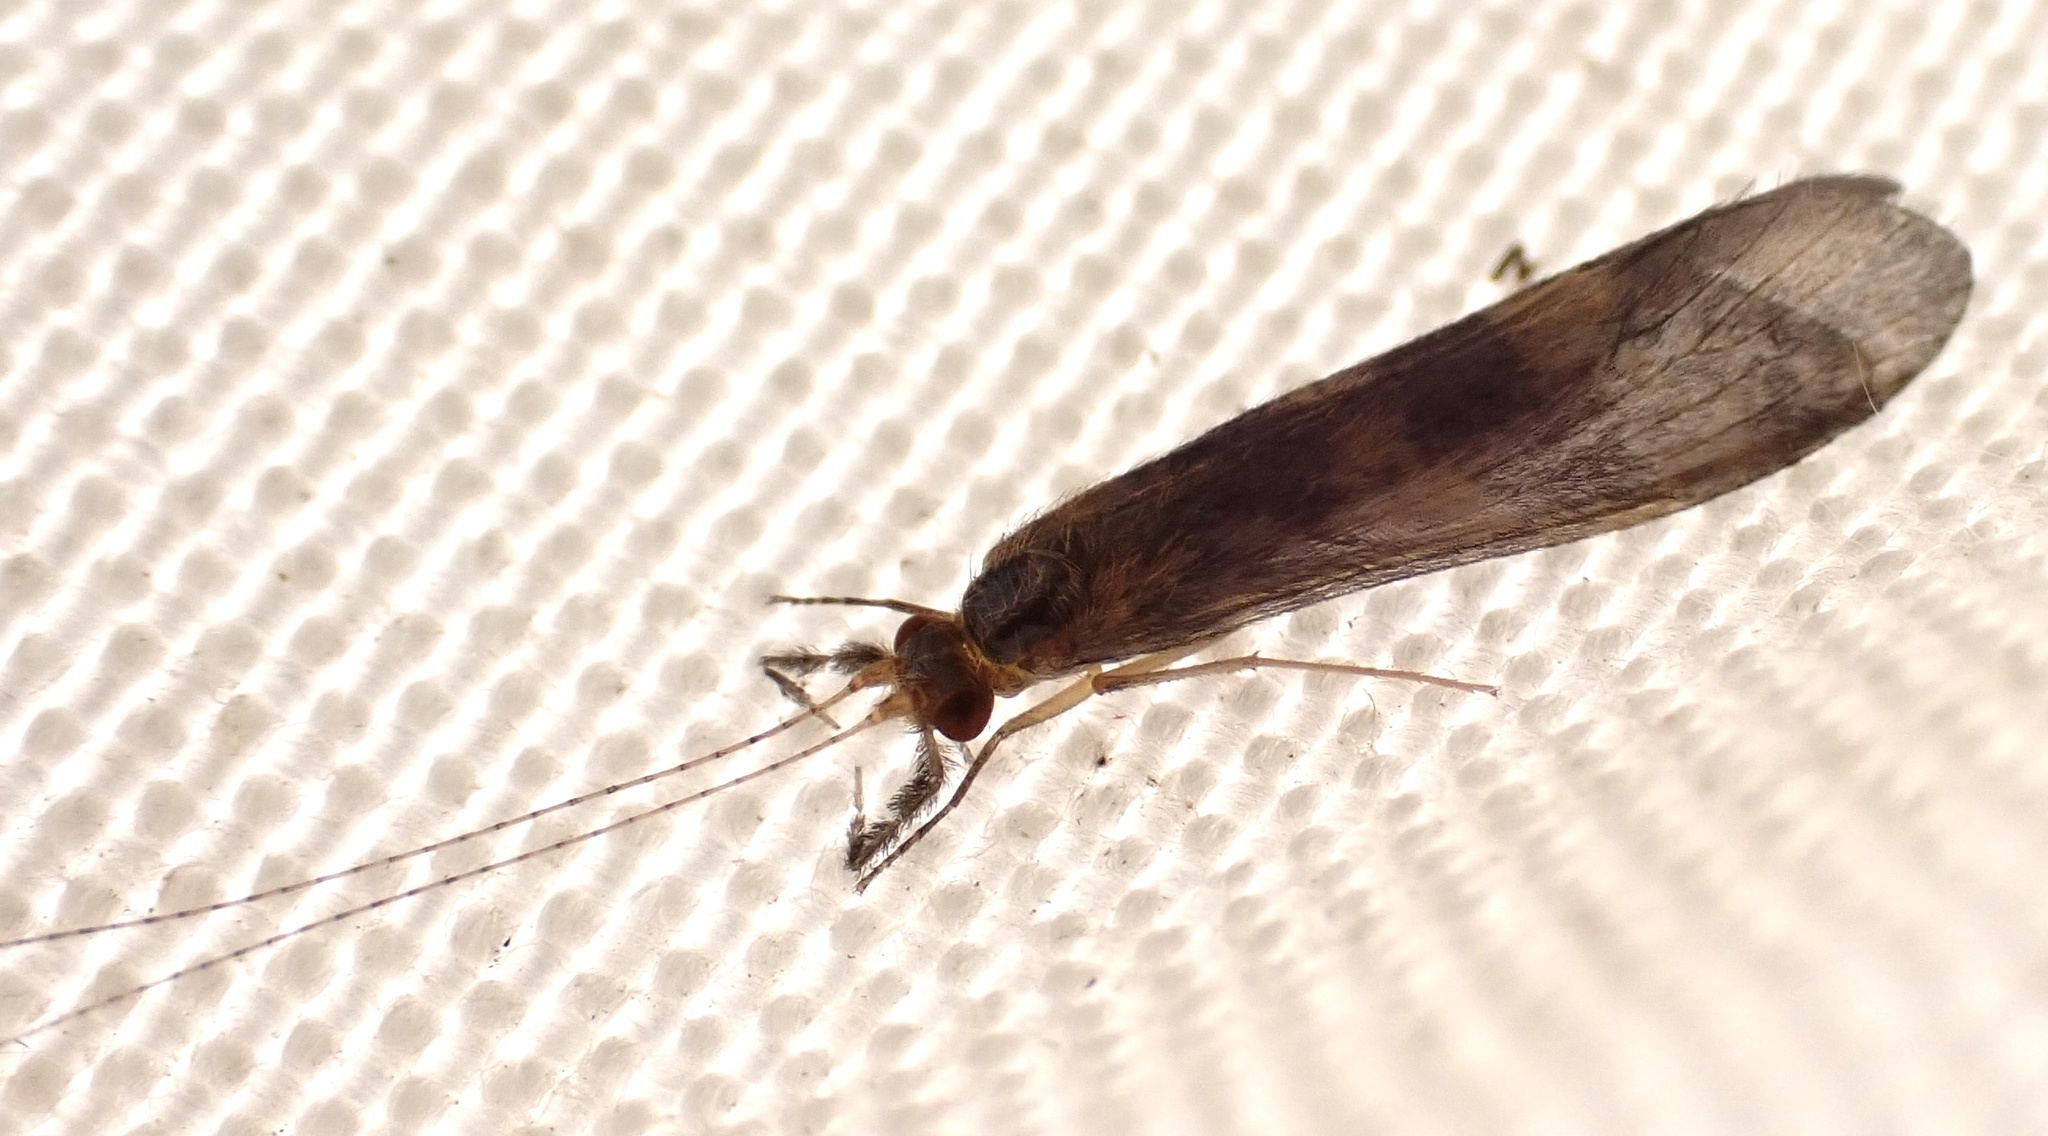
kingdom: Animalia
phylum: Arthropoda
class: Insecta
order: Trichoptera
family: Leptoceridae
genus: Mystacides
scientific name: Mystacides longicornis
